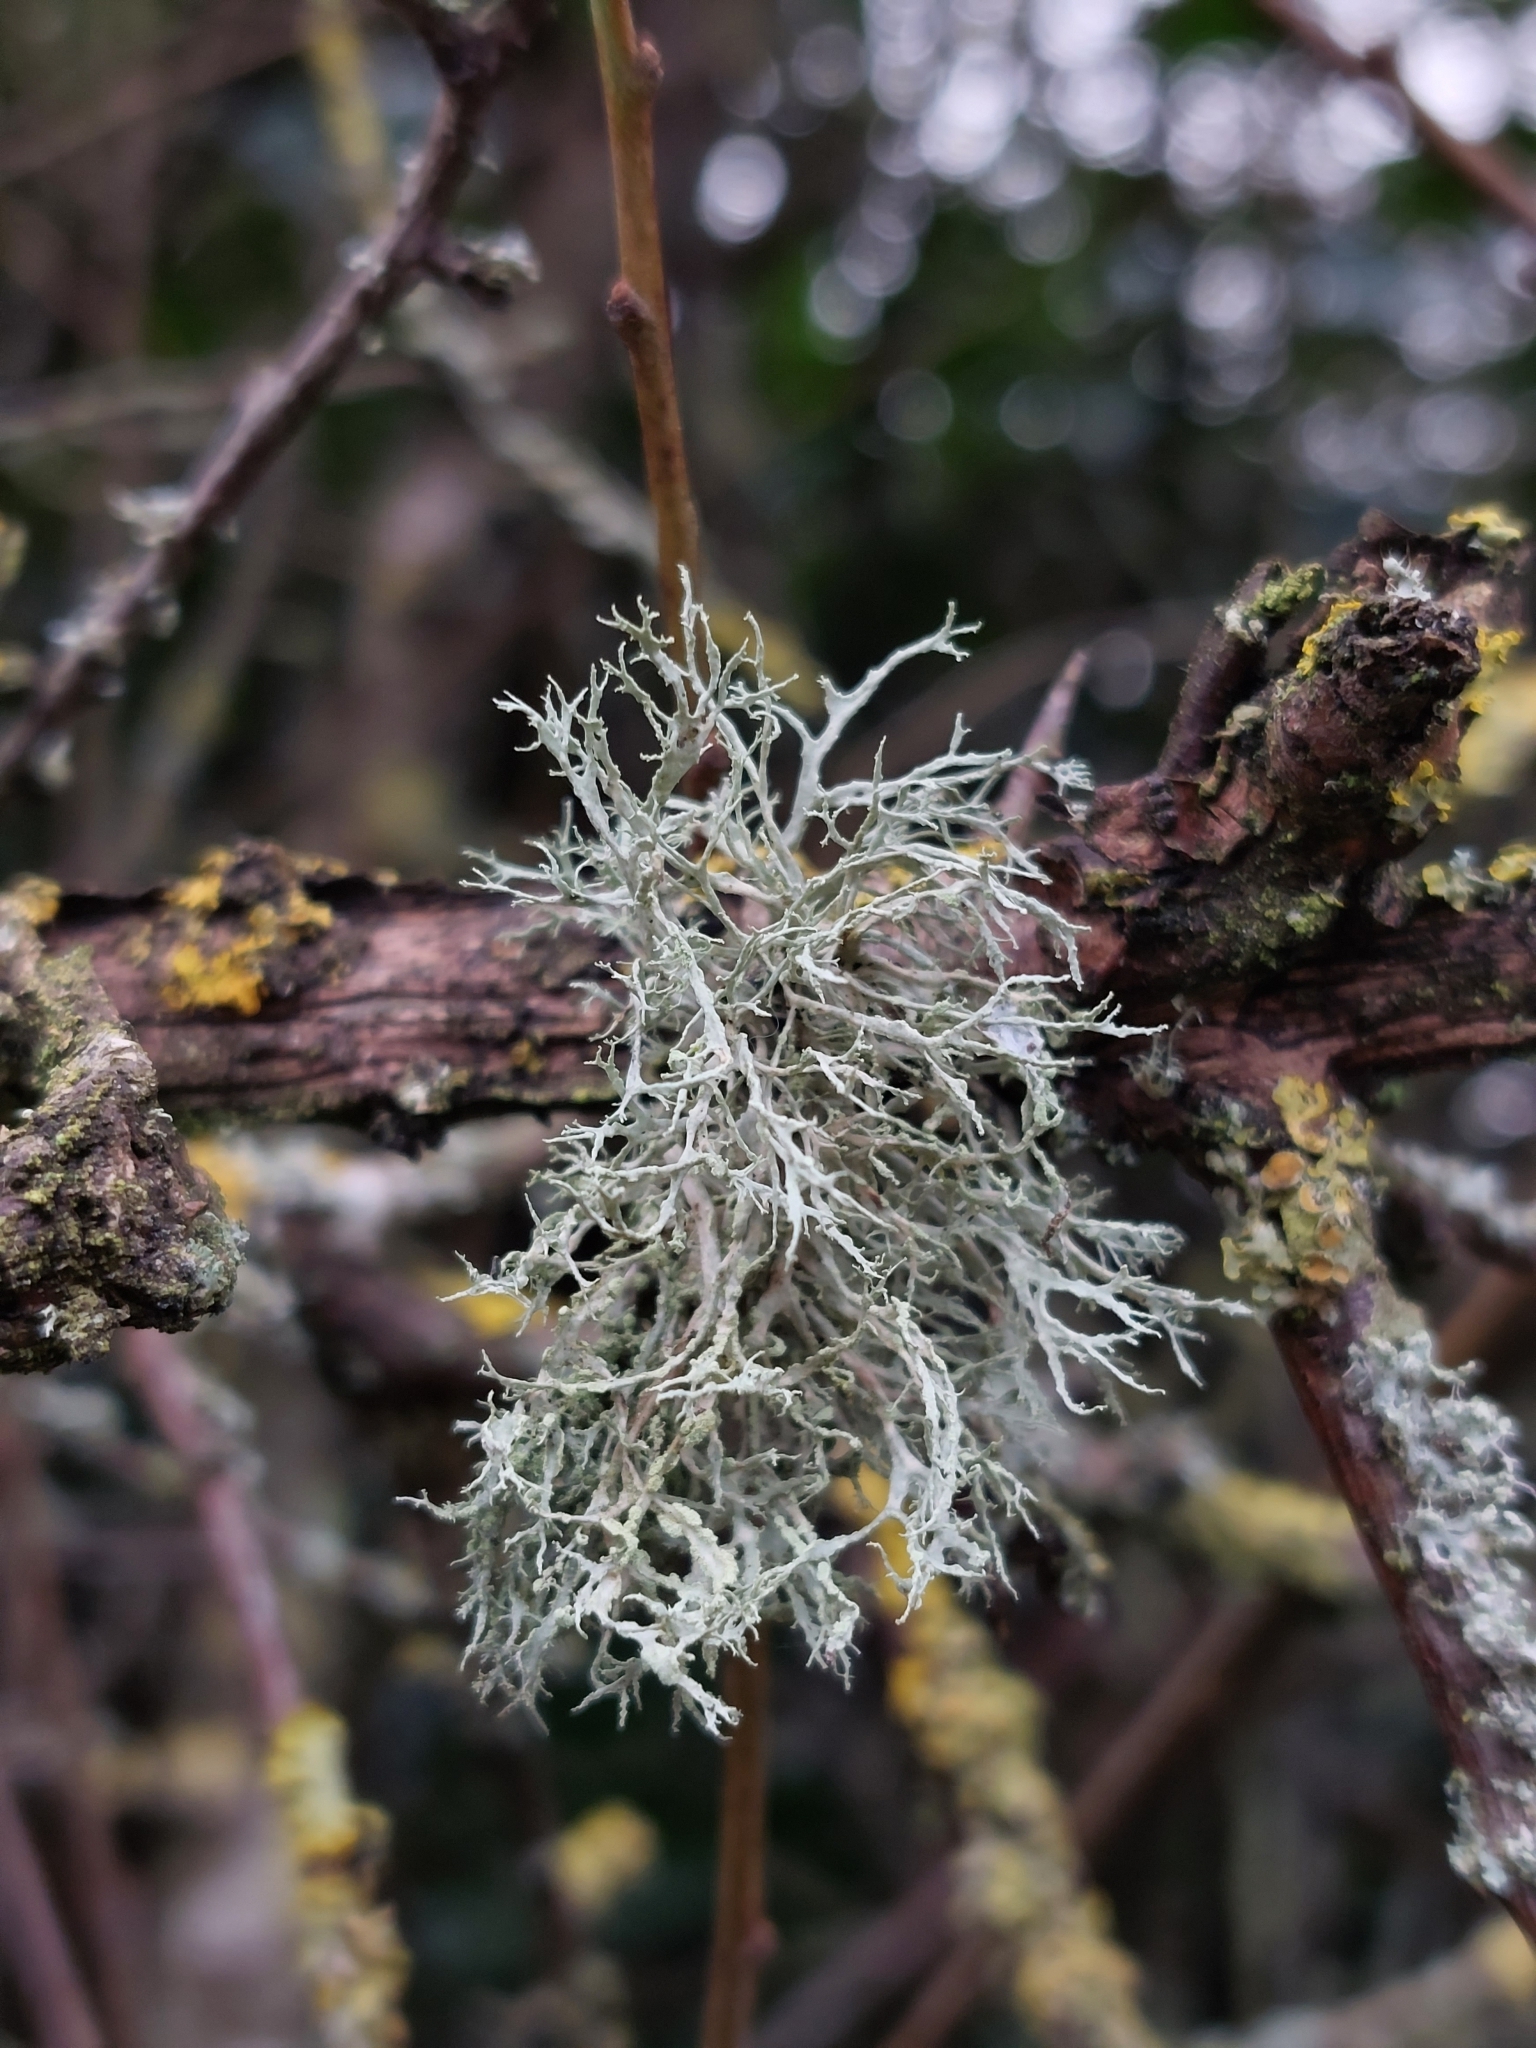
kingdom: Fungi
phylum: Ascomycota
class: Lecanoromycetes
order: Lecanorales
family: Ramalinaceae
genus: Ramalina
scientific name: Ramalina farinacea
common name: Farinose cartilage lichen
